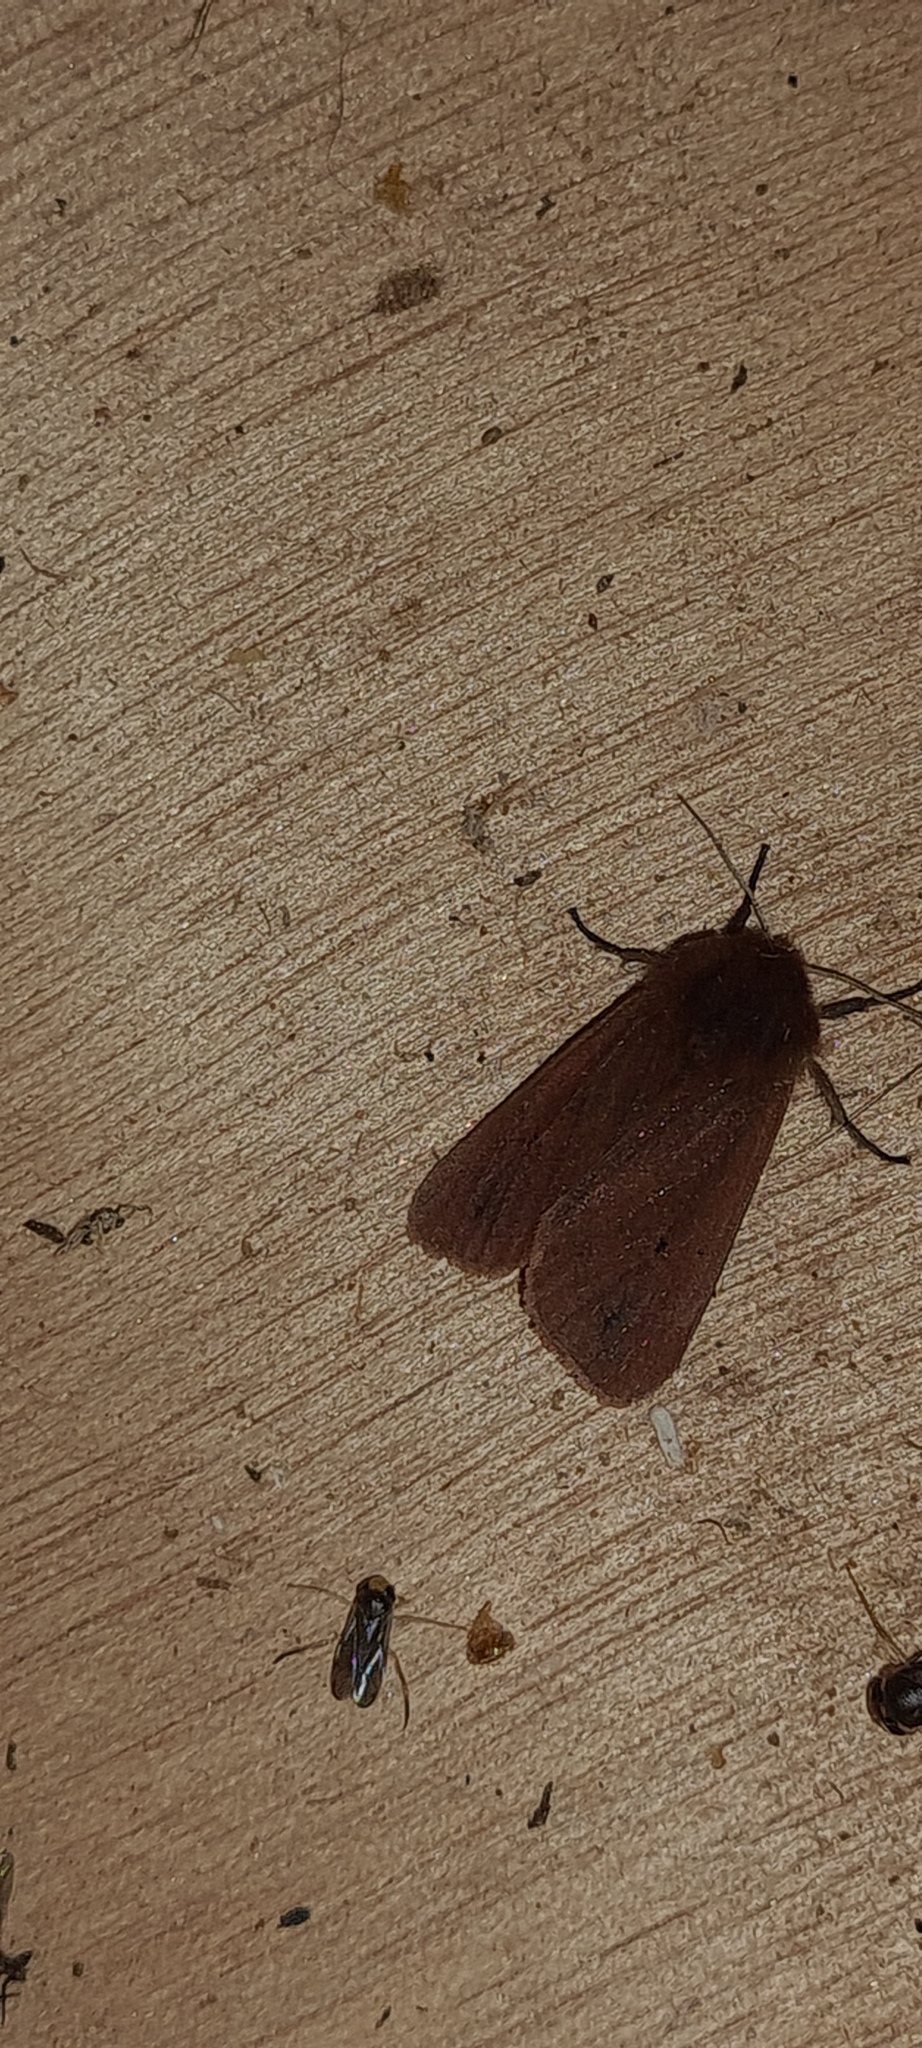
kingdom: Animalia
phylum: Arthropoda
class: Insecta
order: Lepidoptera
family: Erebidae
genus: Phragmatobia
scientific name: Phragmatobia fuliginosa
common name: Ruby tiger
